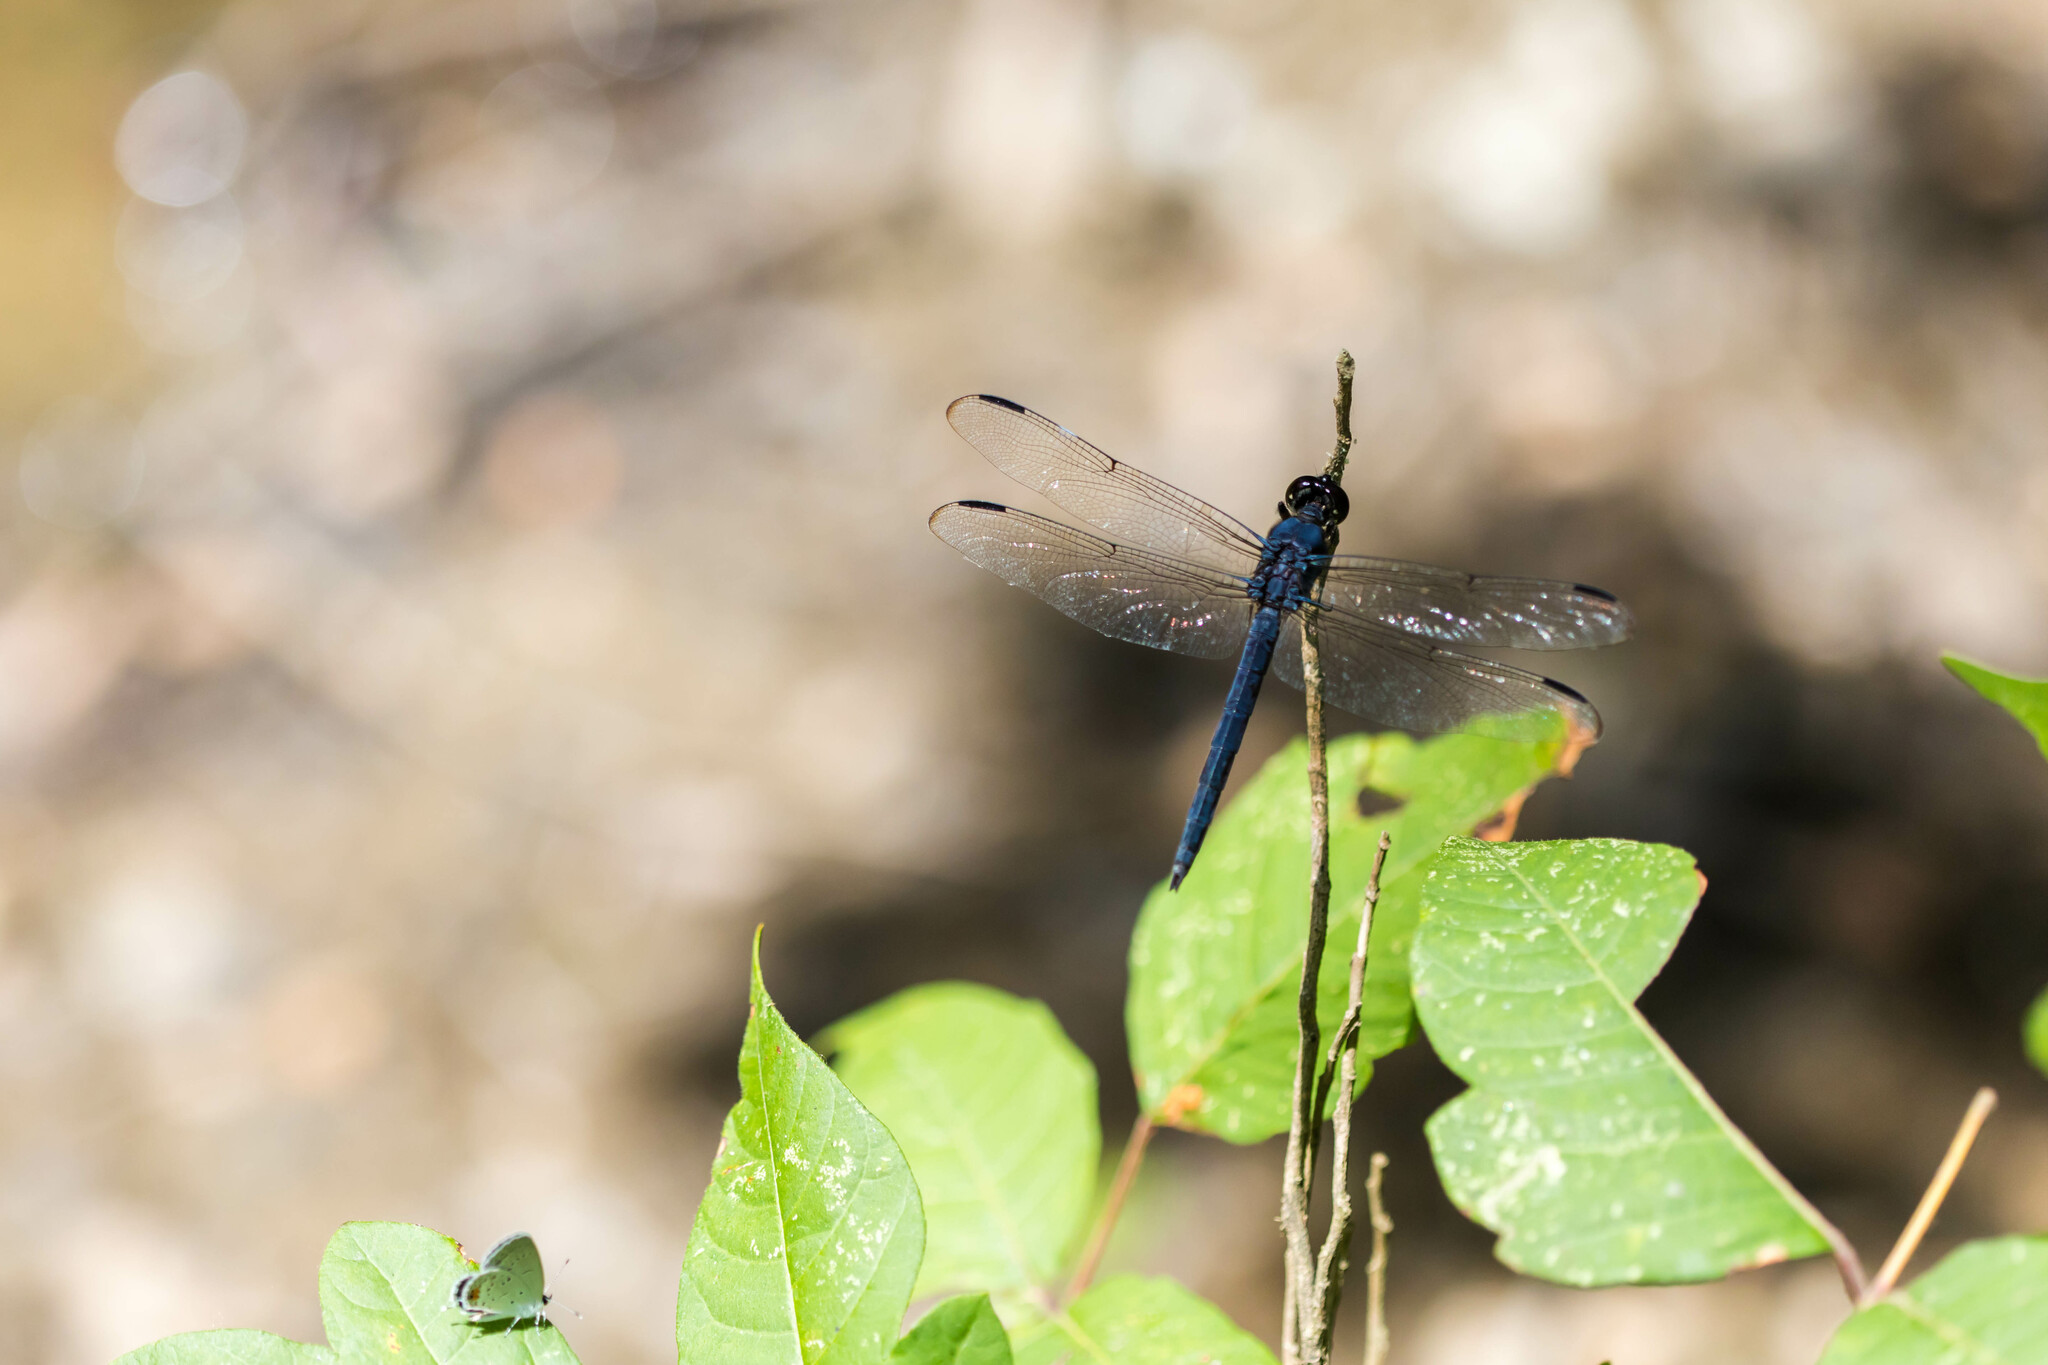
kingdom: Animalia
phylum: Arthropoda
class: Insecta
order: Odonata
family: Libellulidae
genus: Libellula
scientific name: Libellula incesta
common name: Slaty skimmer
